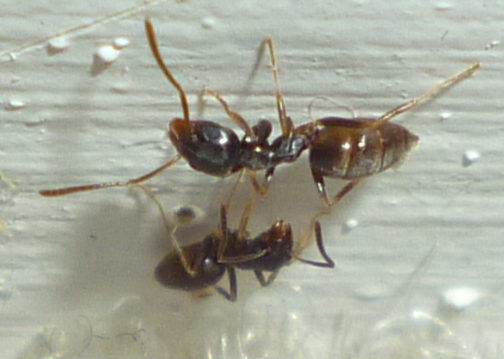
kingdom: Animalia
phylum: Arthropoda
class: Insecta
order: Hymenoptera
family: Formicidae
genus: Tapinoma
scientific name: Tapinoma sessile
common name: Odorous house ant
